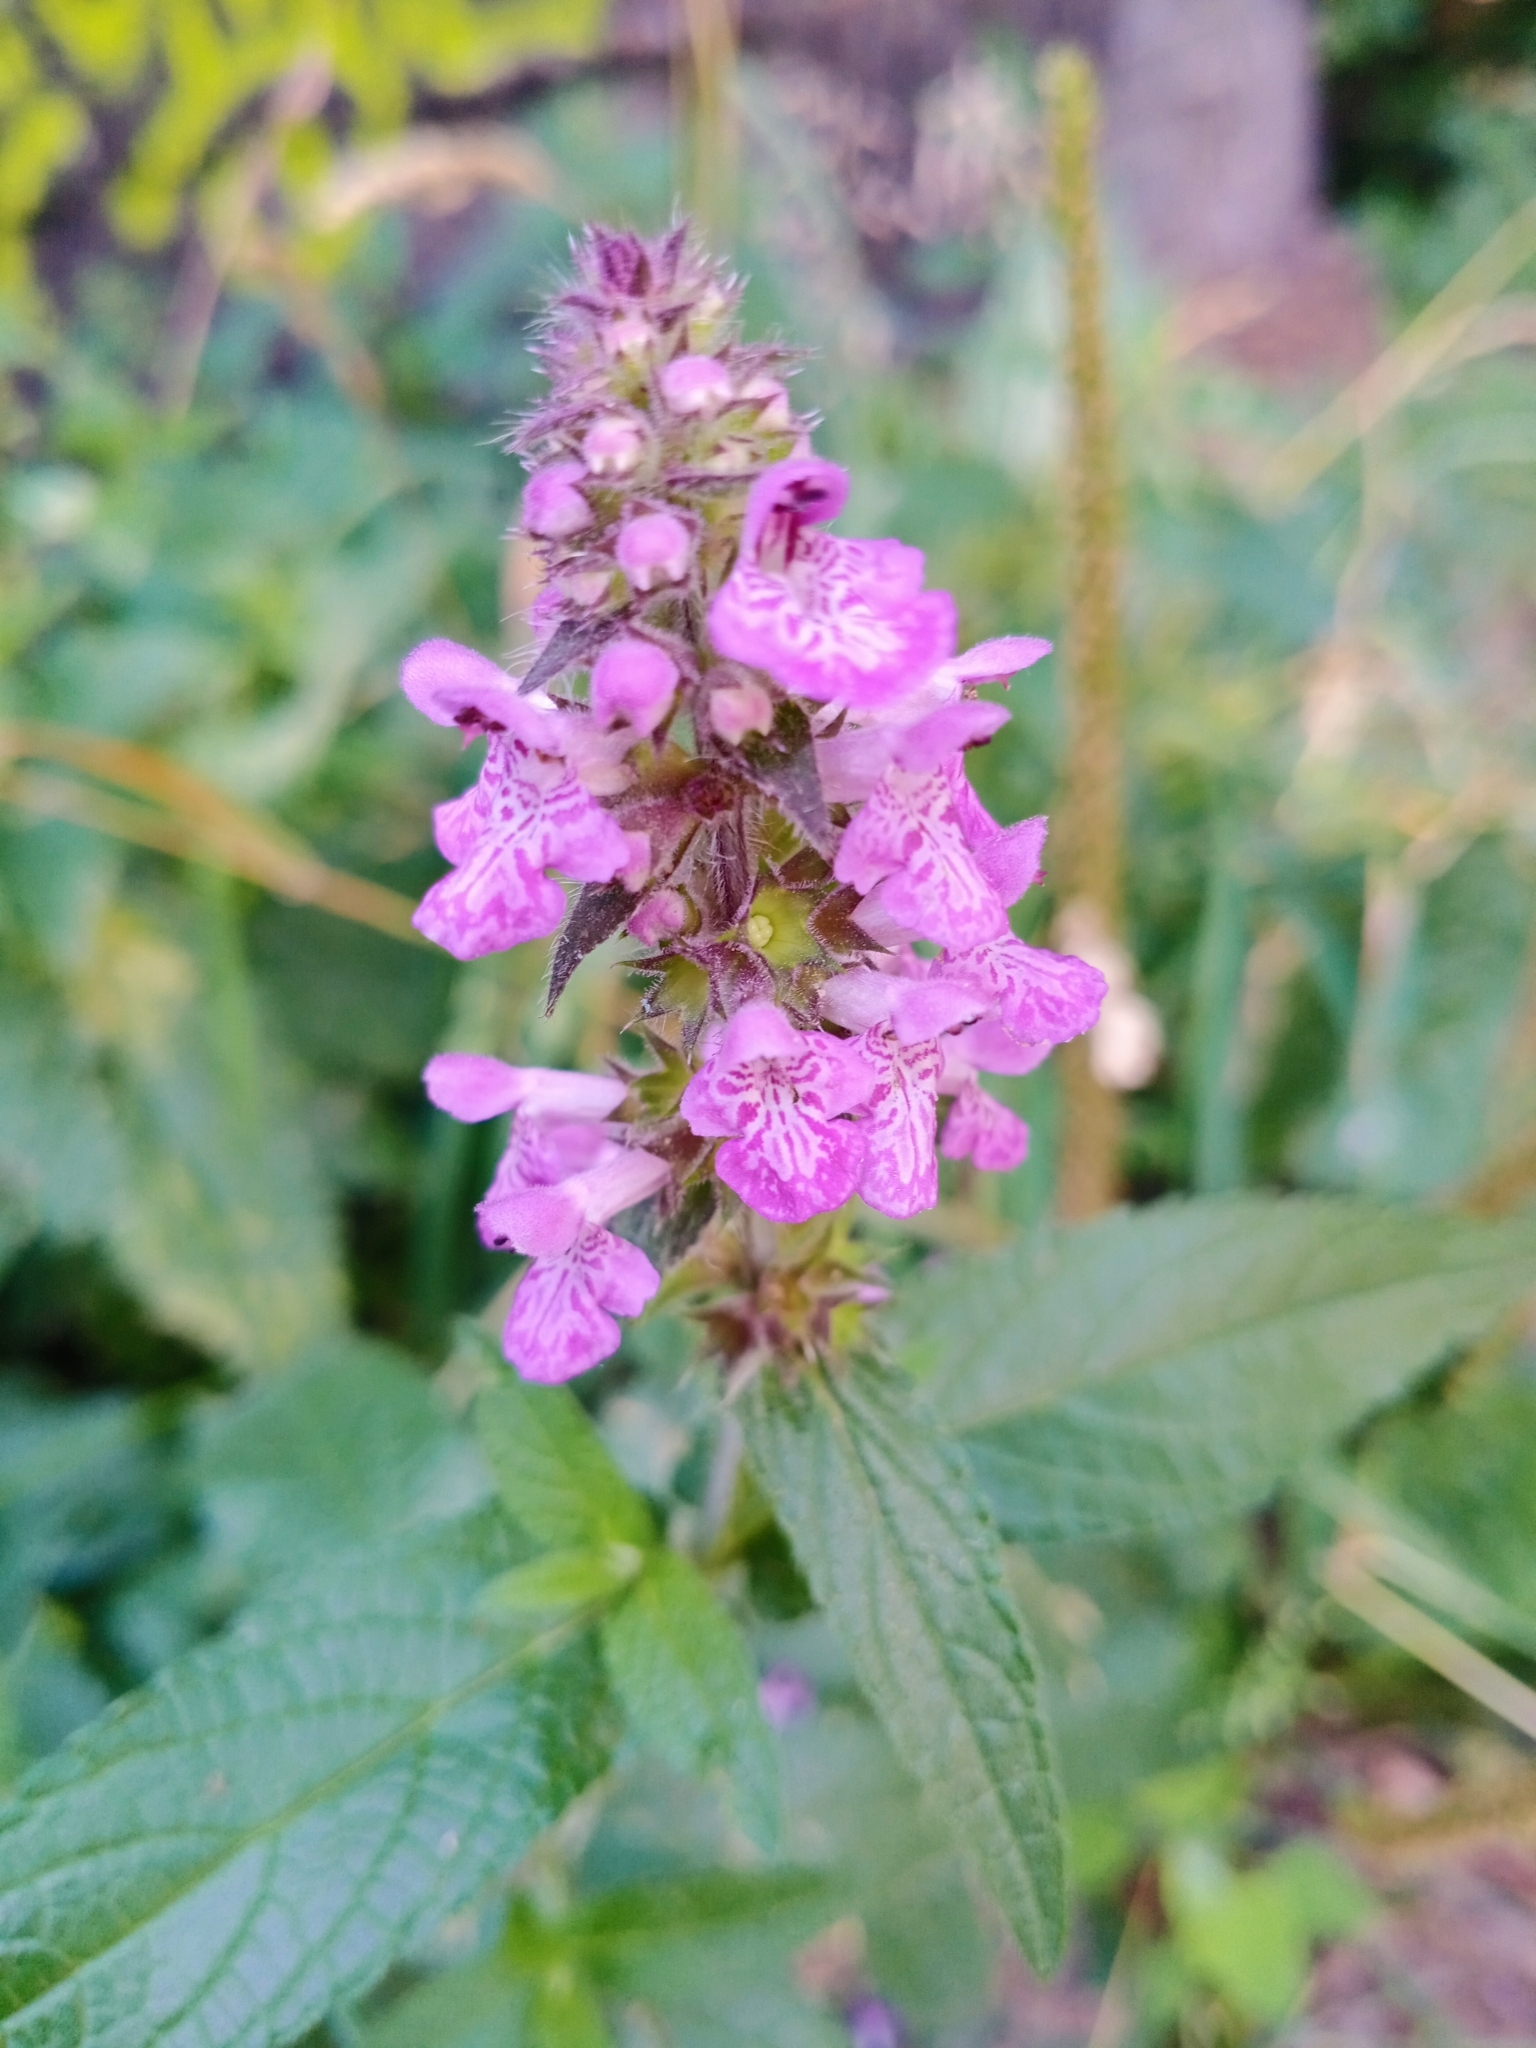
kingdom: Plantae
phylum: Tracheophyta
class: Magnoliopsida
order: Lamiales
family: Lamiaceae
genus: Stachys
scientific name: Stachys palustris
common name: Marsh woundwort
